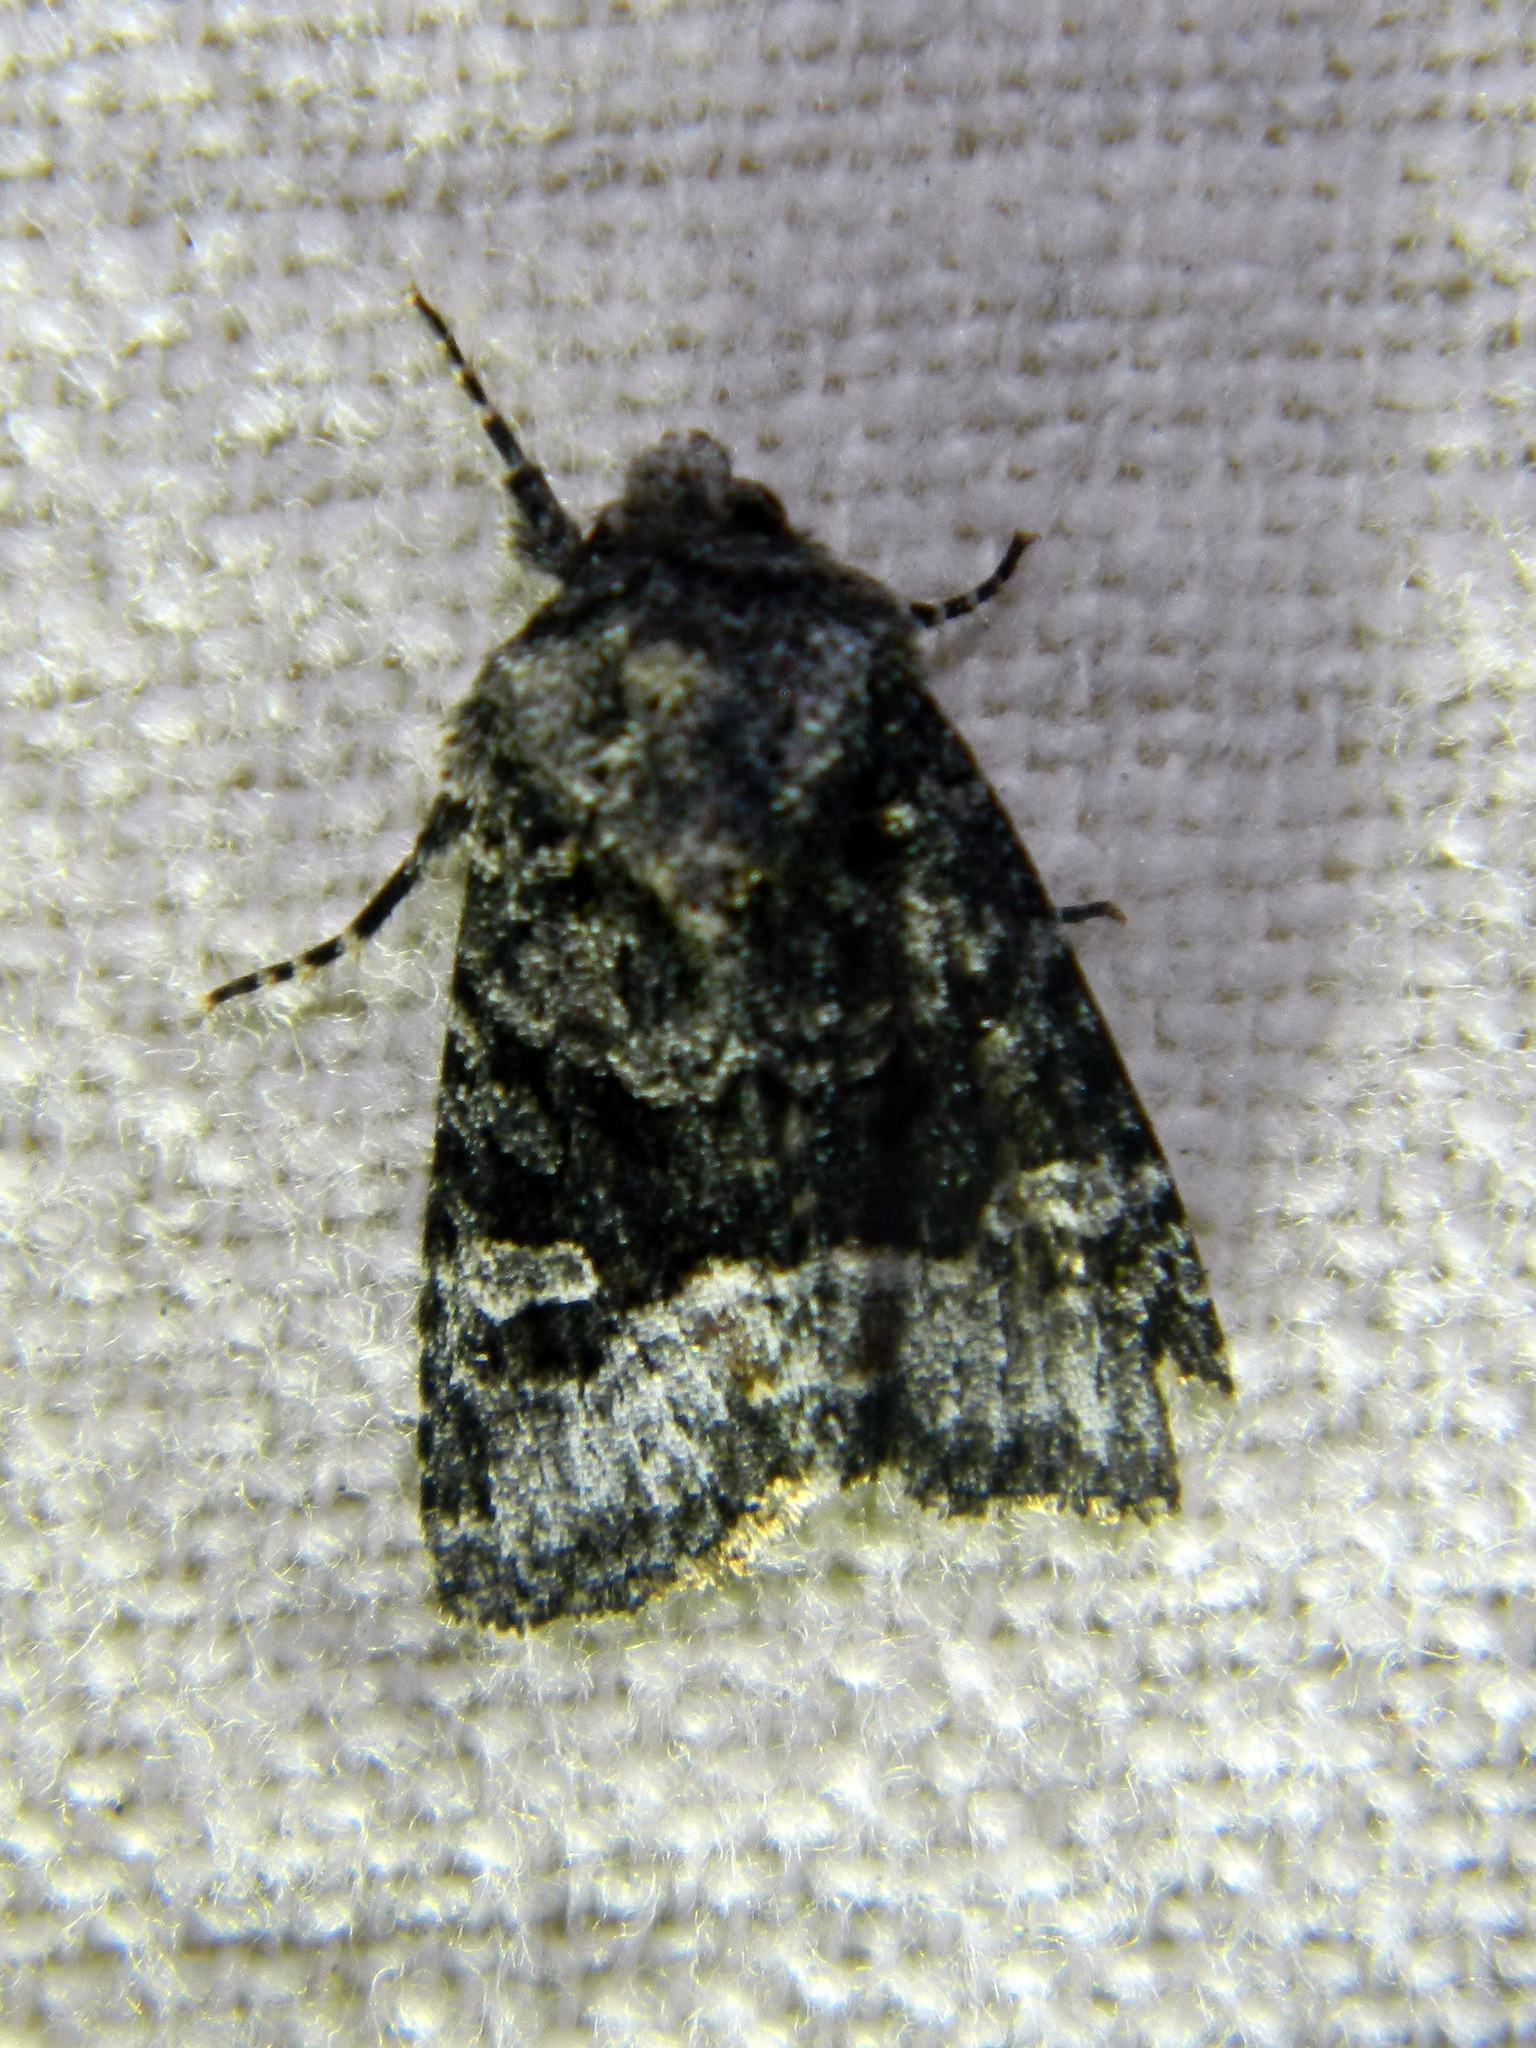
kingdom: Animalia
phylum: Arthropoda
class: Insecta
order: Lepidoptera
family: Noctuidae
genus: Lacinipolia
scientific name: Lacinipolia olivacea
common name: Olive arches moth
